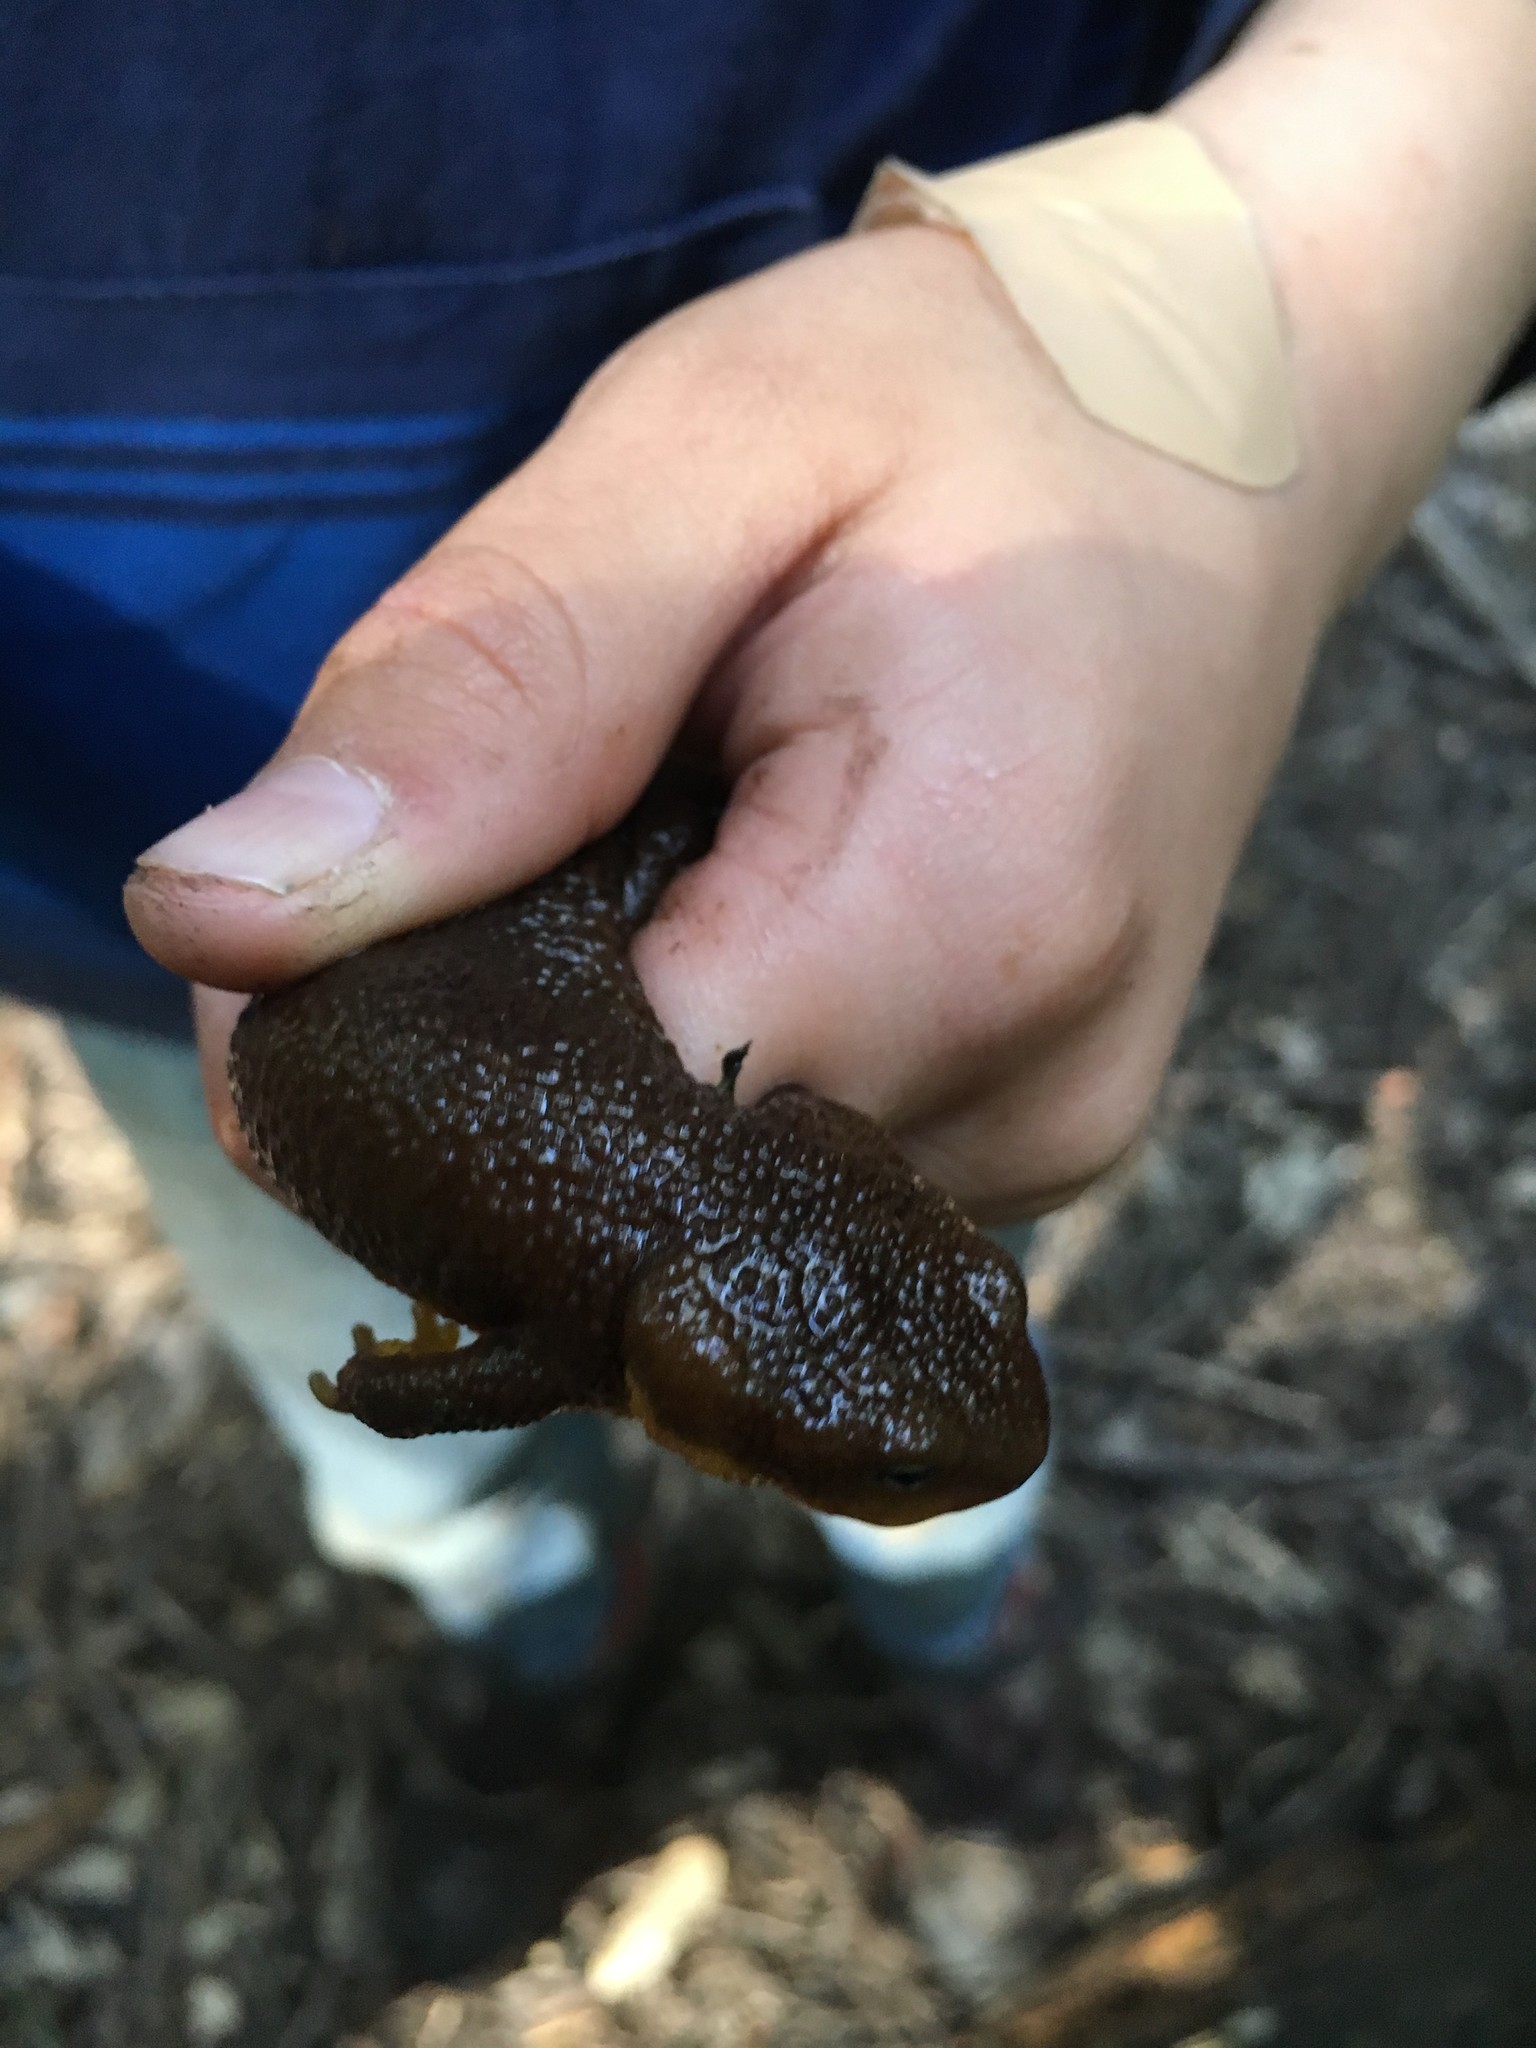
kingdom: Animalia
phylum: Chordata
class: Amphibia
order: Caudata
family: Salamandridae
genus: Taricha
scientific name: Taricha granulosa
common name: Roughskin newt
